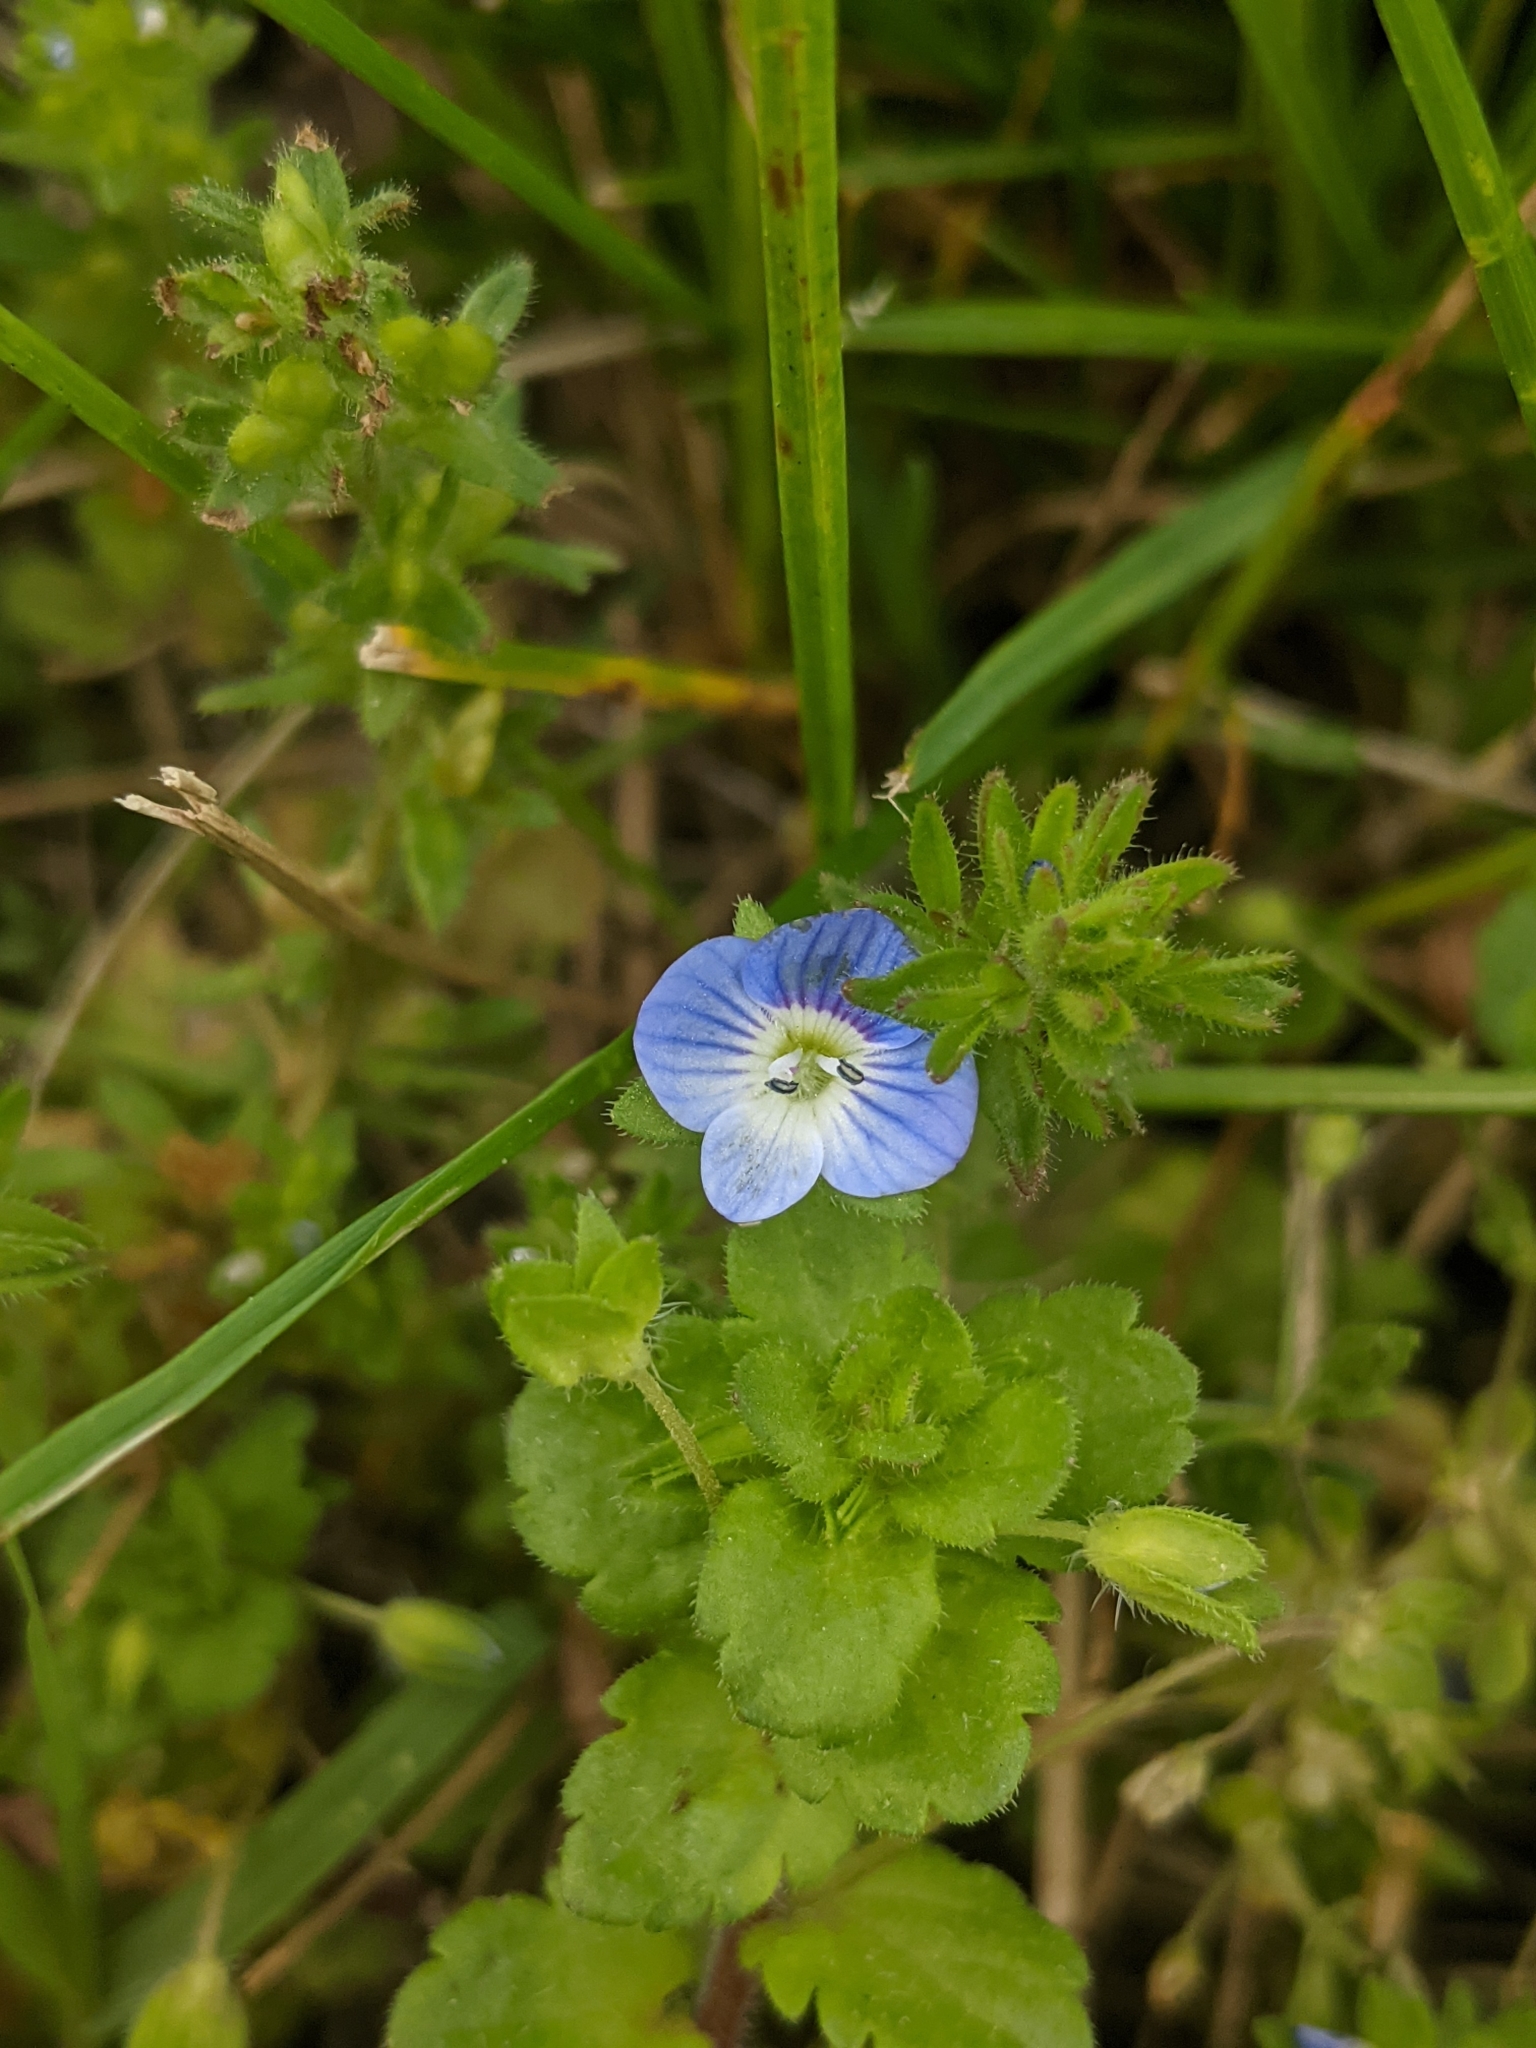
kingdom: Plantae
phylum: Tracheophyta
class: Magnoliopsida
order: Lamiales
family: Plantaginaceae
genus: Veronica
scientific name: Veronica persica
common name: Common field-speedwell
